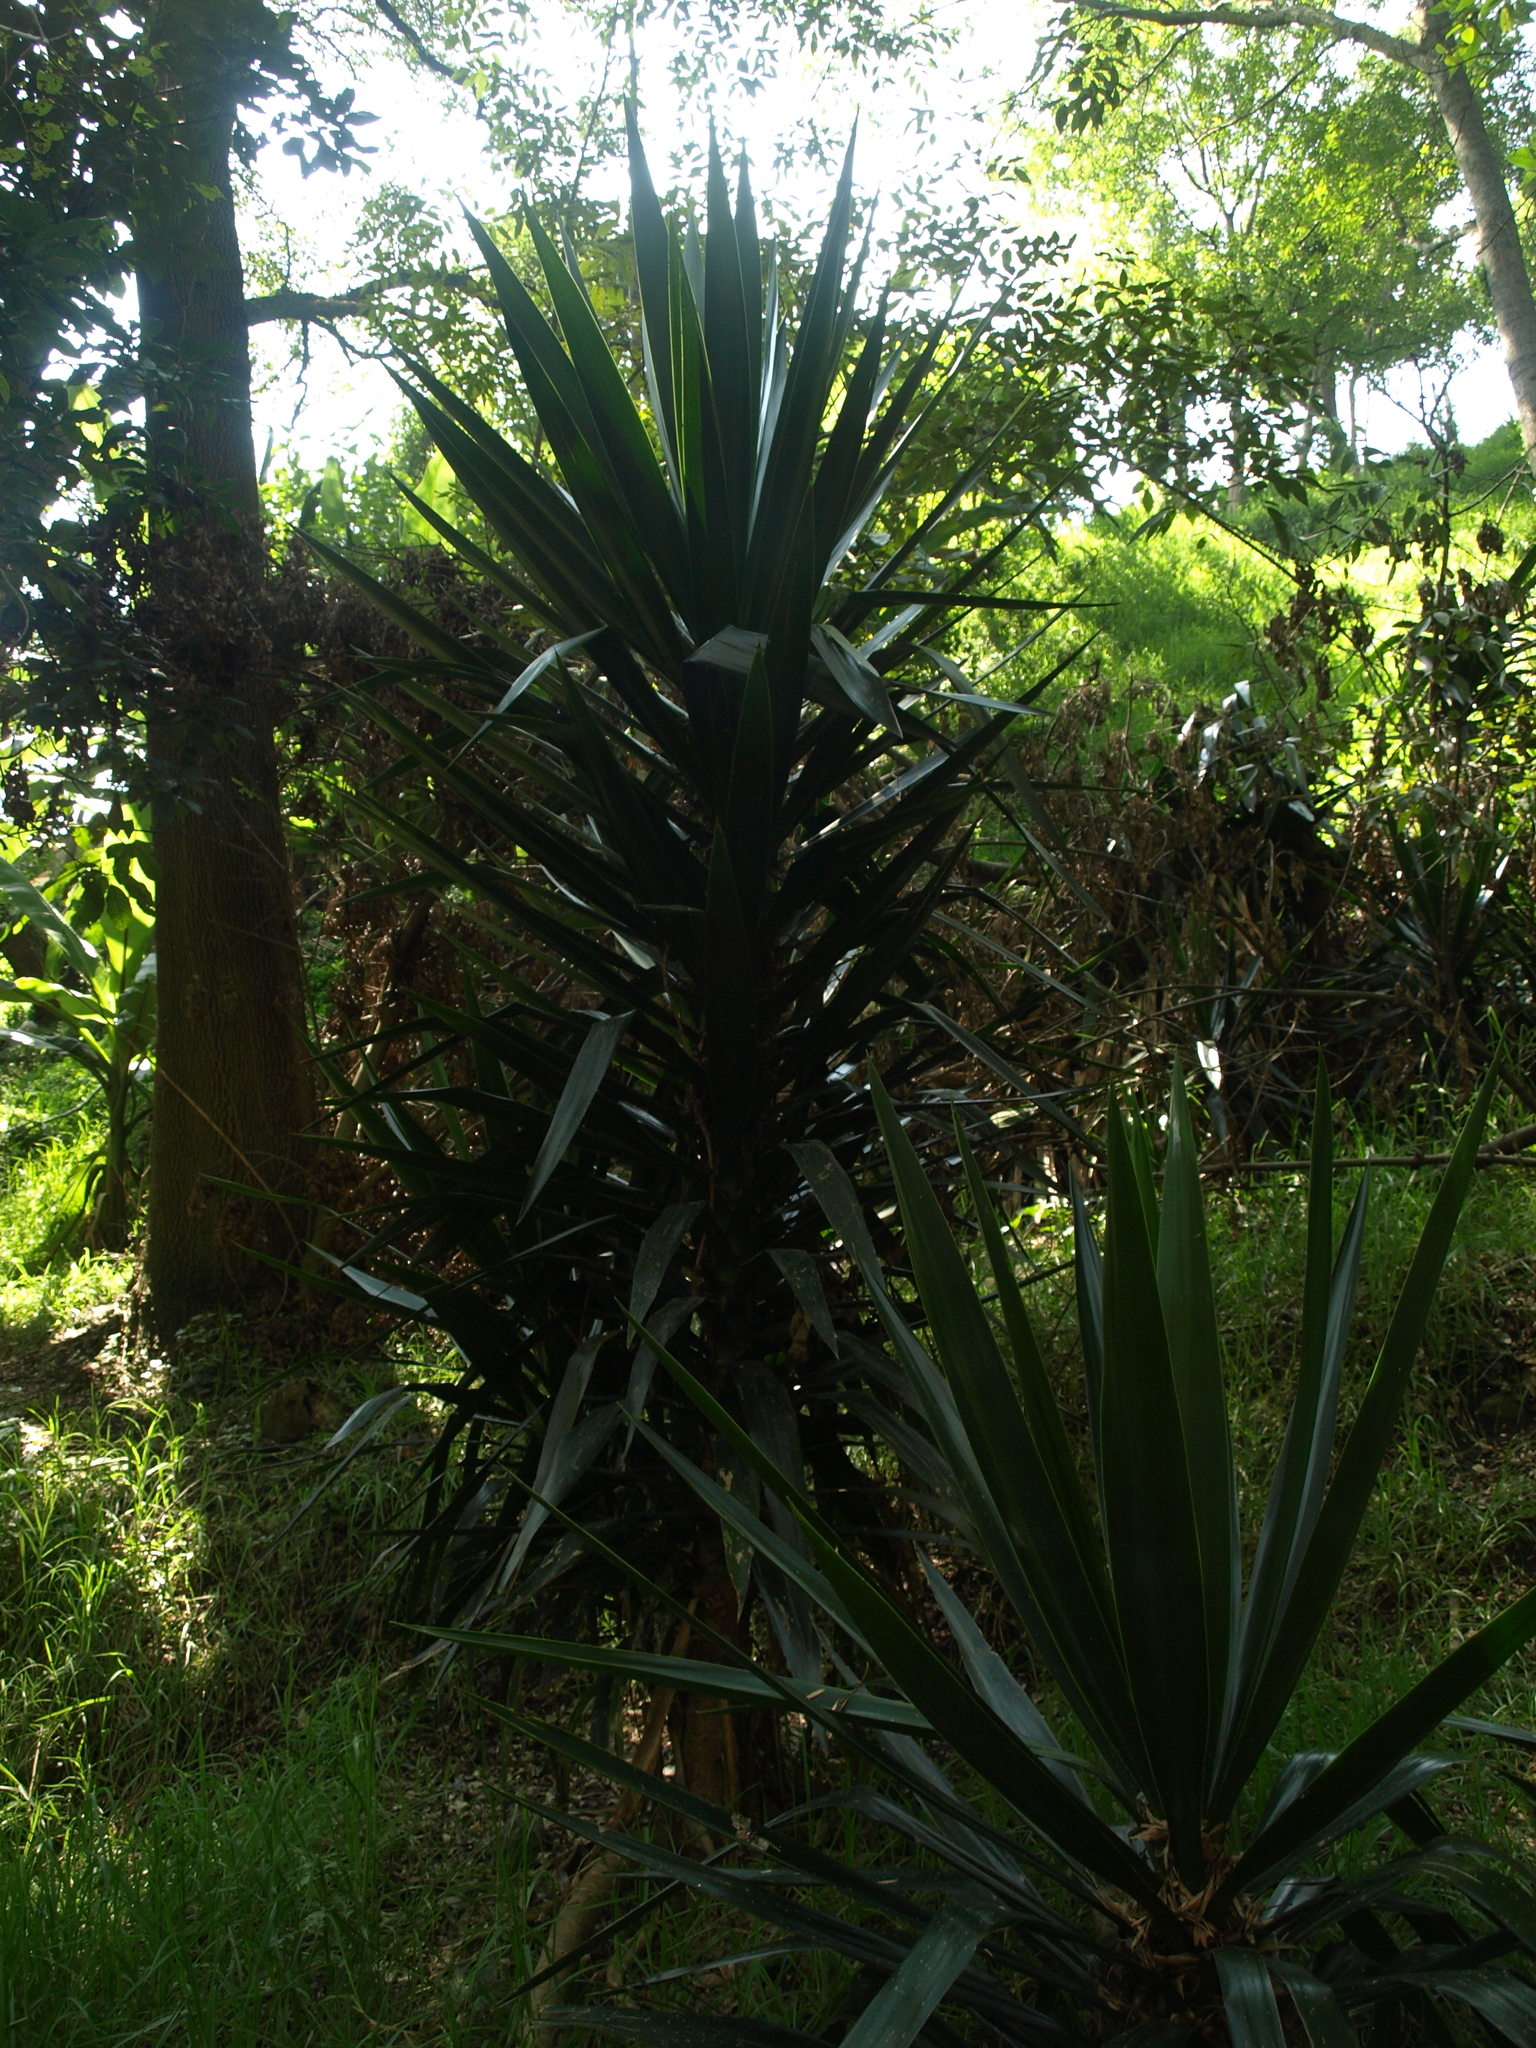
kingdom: Plantae
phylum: Tracheophyta
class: Liliopsida
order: Asparagales
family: Asparagaceae
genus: Yucca
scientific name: Yucca gigantea
